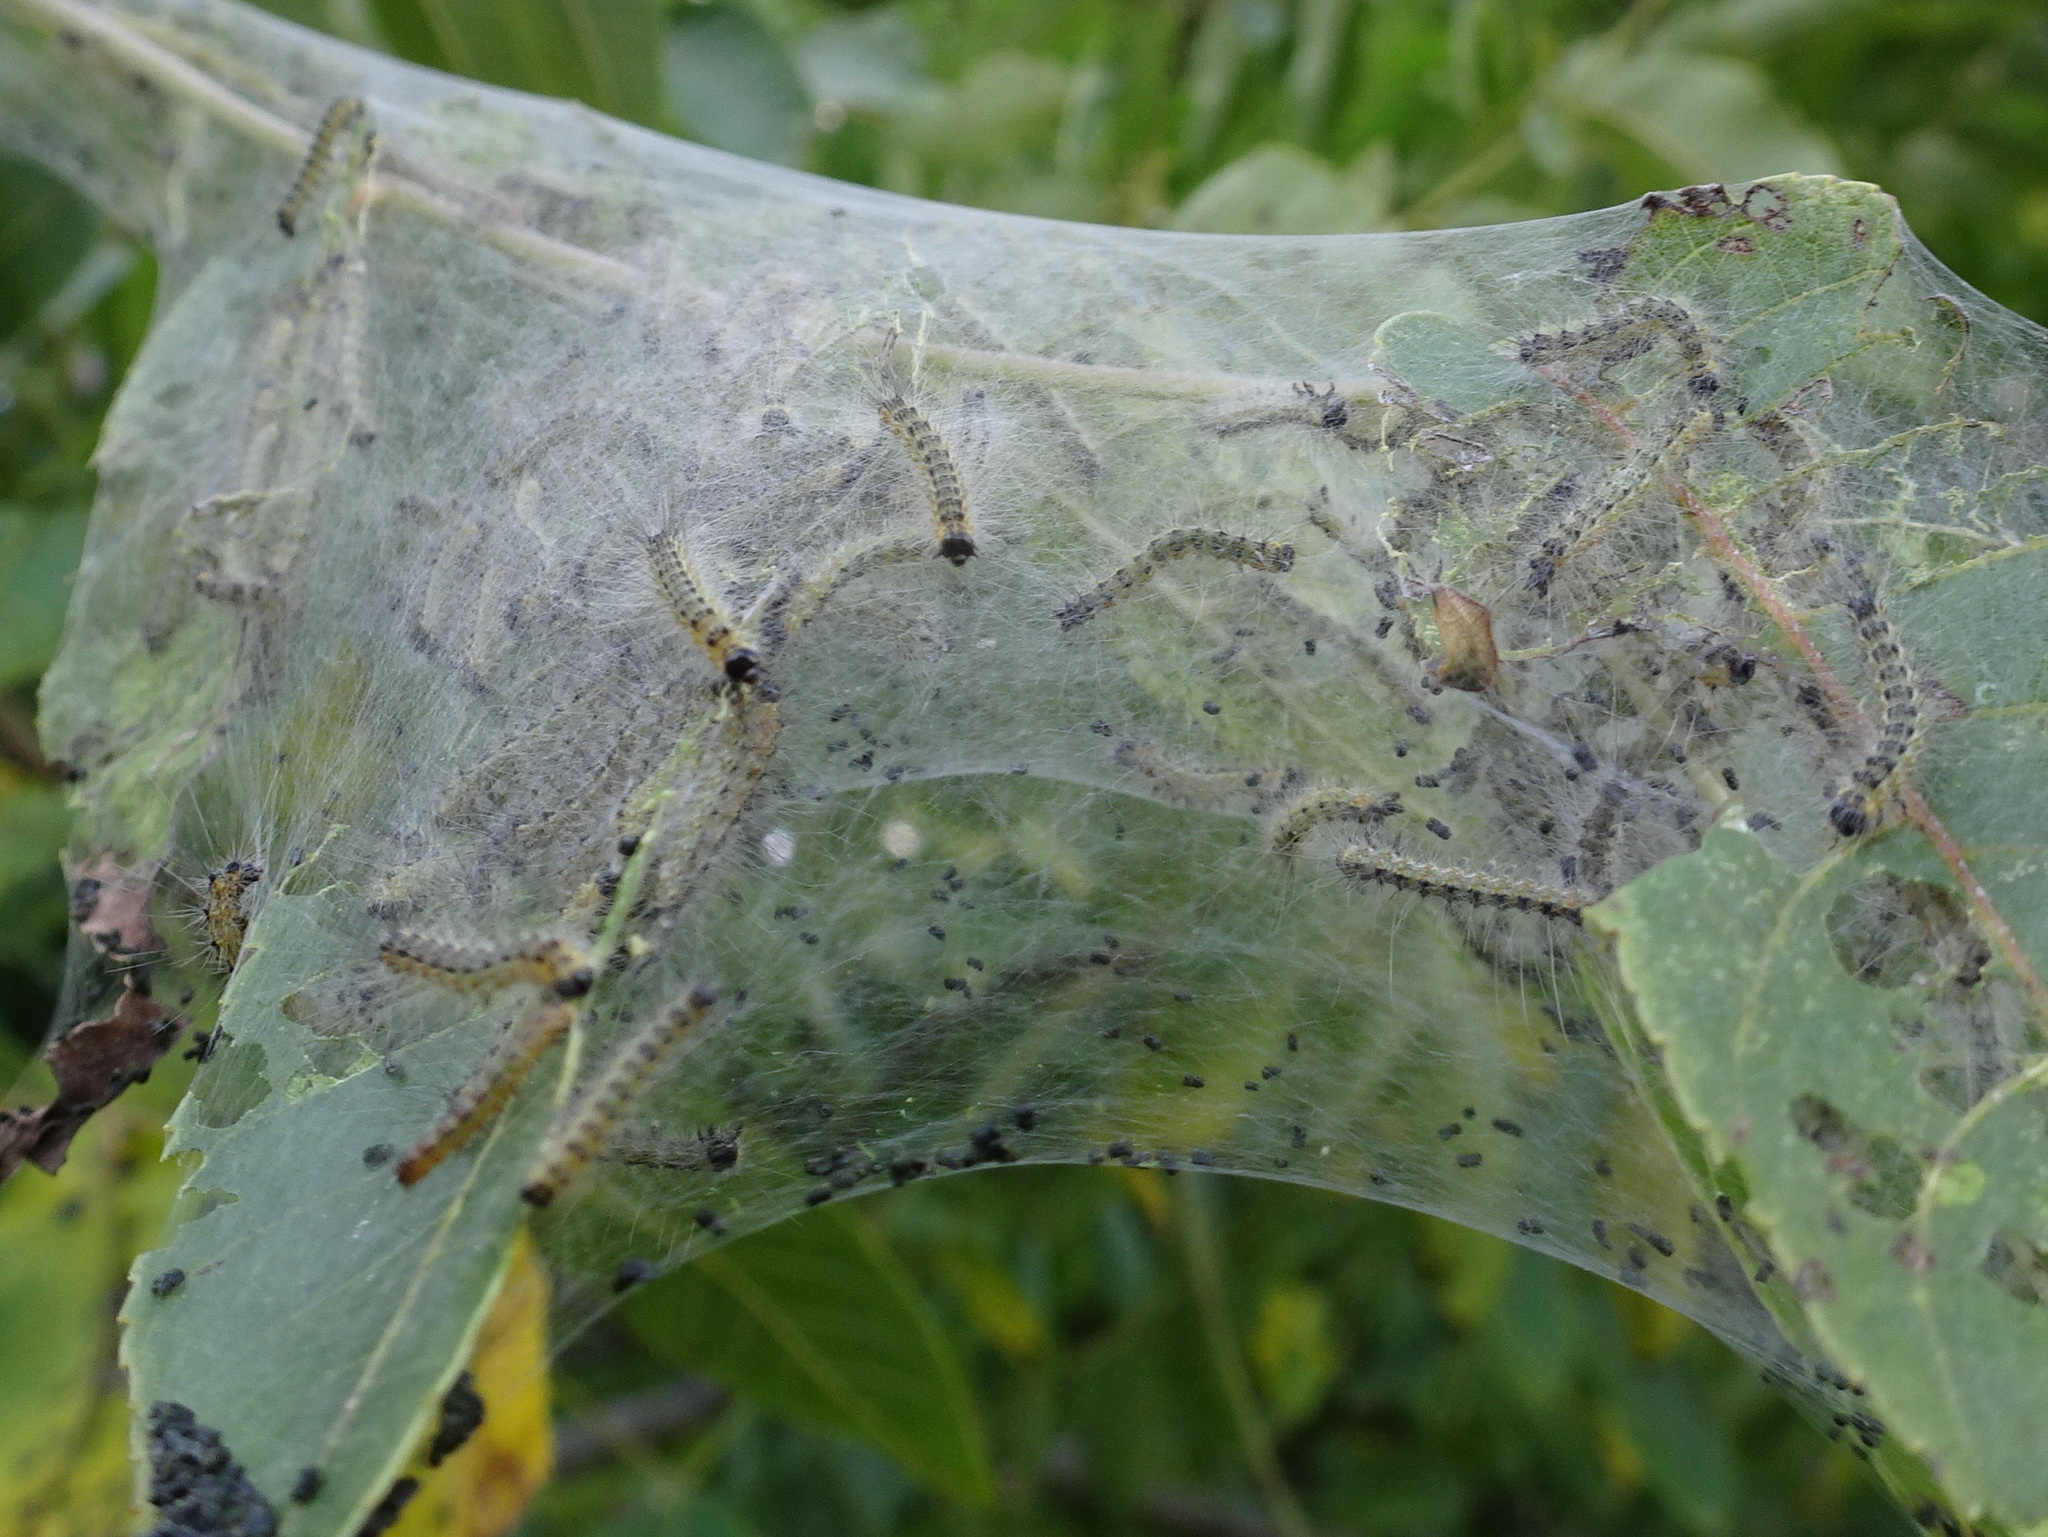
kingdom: Animalia
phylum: Arthropoda
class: Insecta
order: Lepidoptera
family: Erebidae
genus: Hyphantria
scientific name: Hyphantria cunea
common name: American white moth
